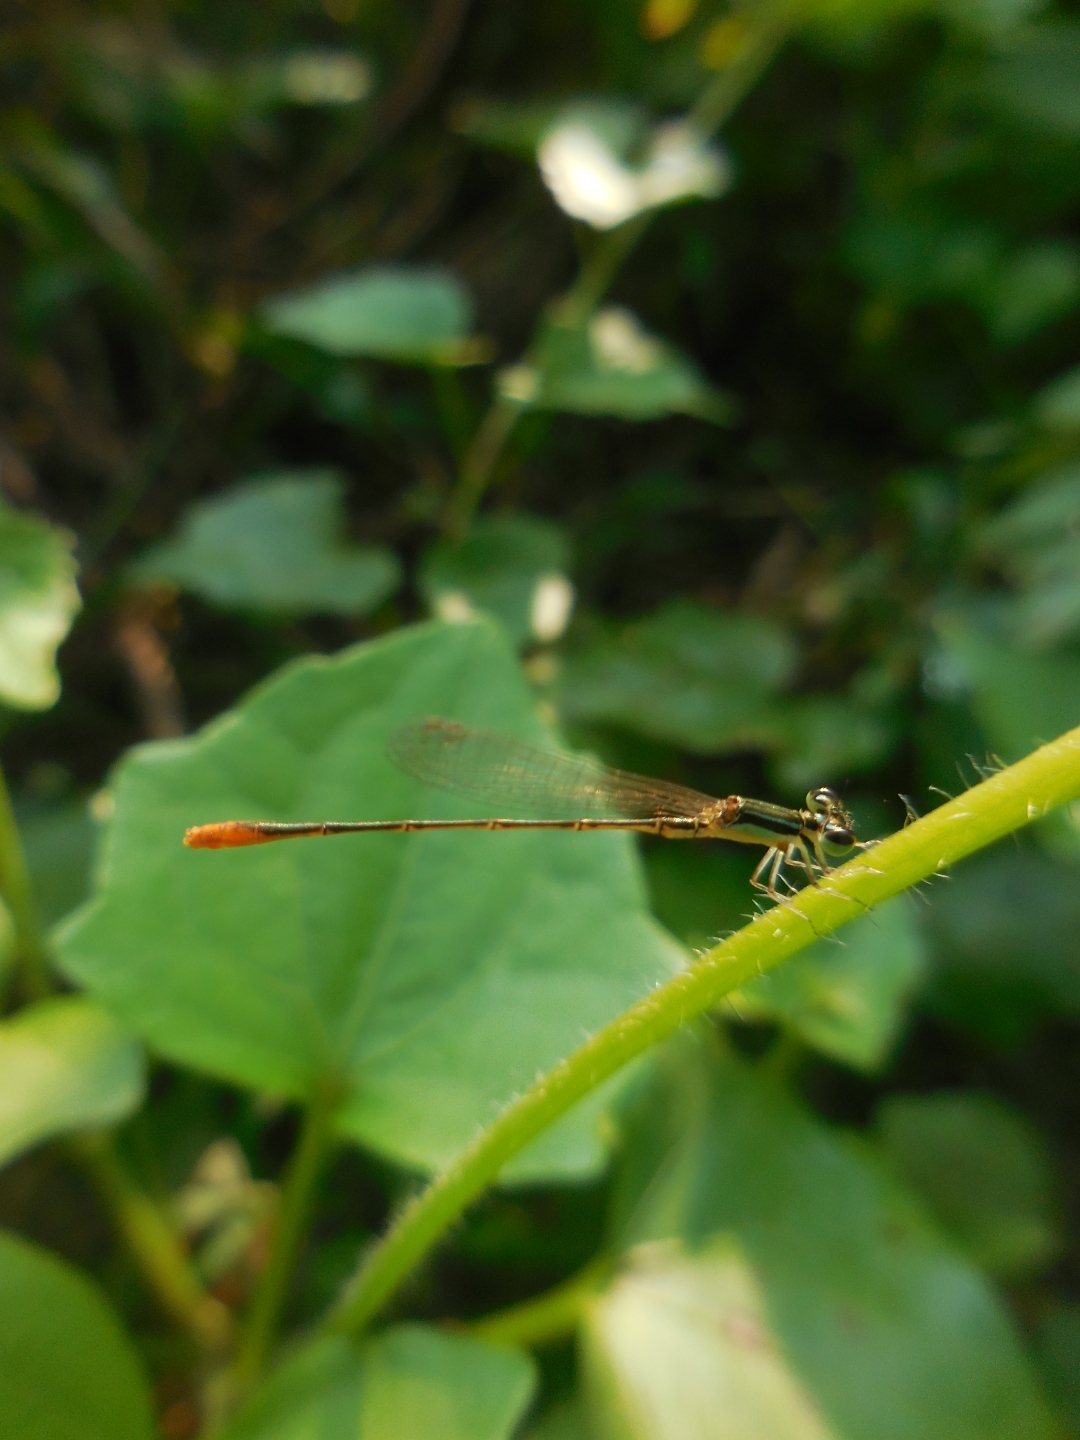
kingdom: Animalia
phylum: Arthropoda
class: Insecta
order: Odonata
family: Coenagrionidae
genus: Agriocnemis
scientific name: Agriocnemis femina
